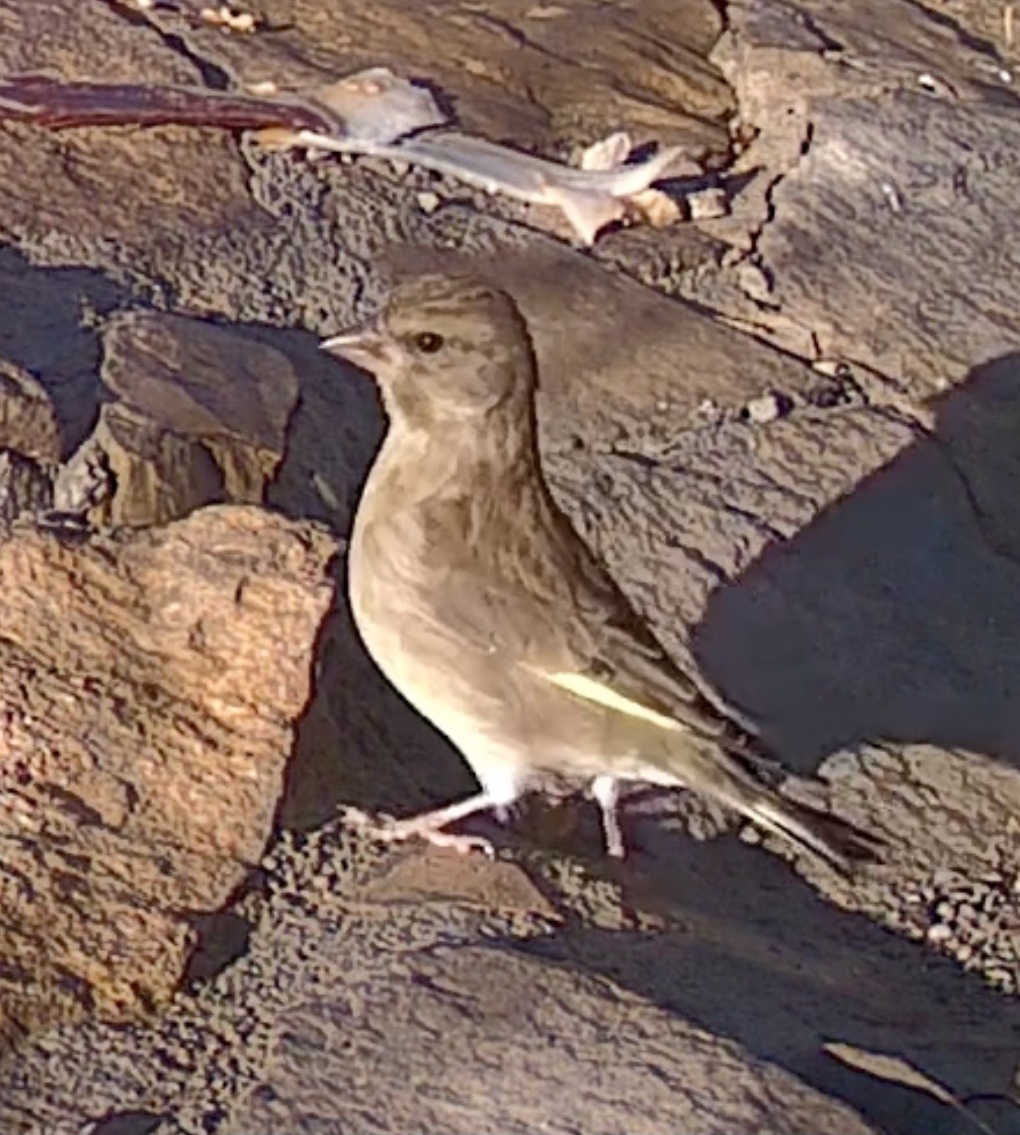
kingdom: Plantae
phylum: Tracheophyta
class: Liliopsida
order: Poales
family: Poaceae
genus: Chloris
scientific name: Chloris chloris
